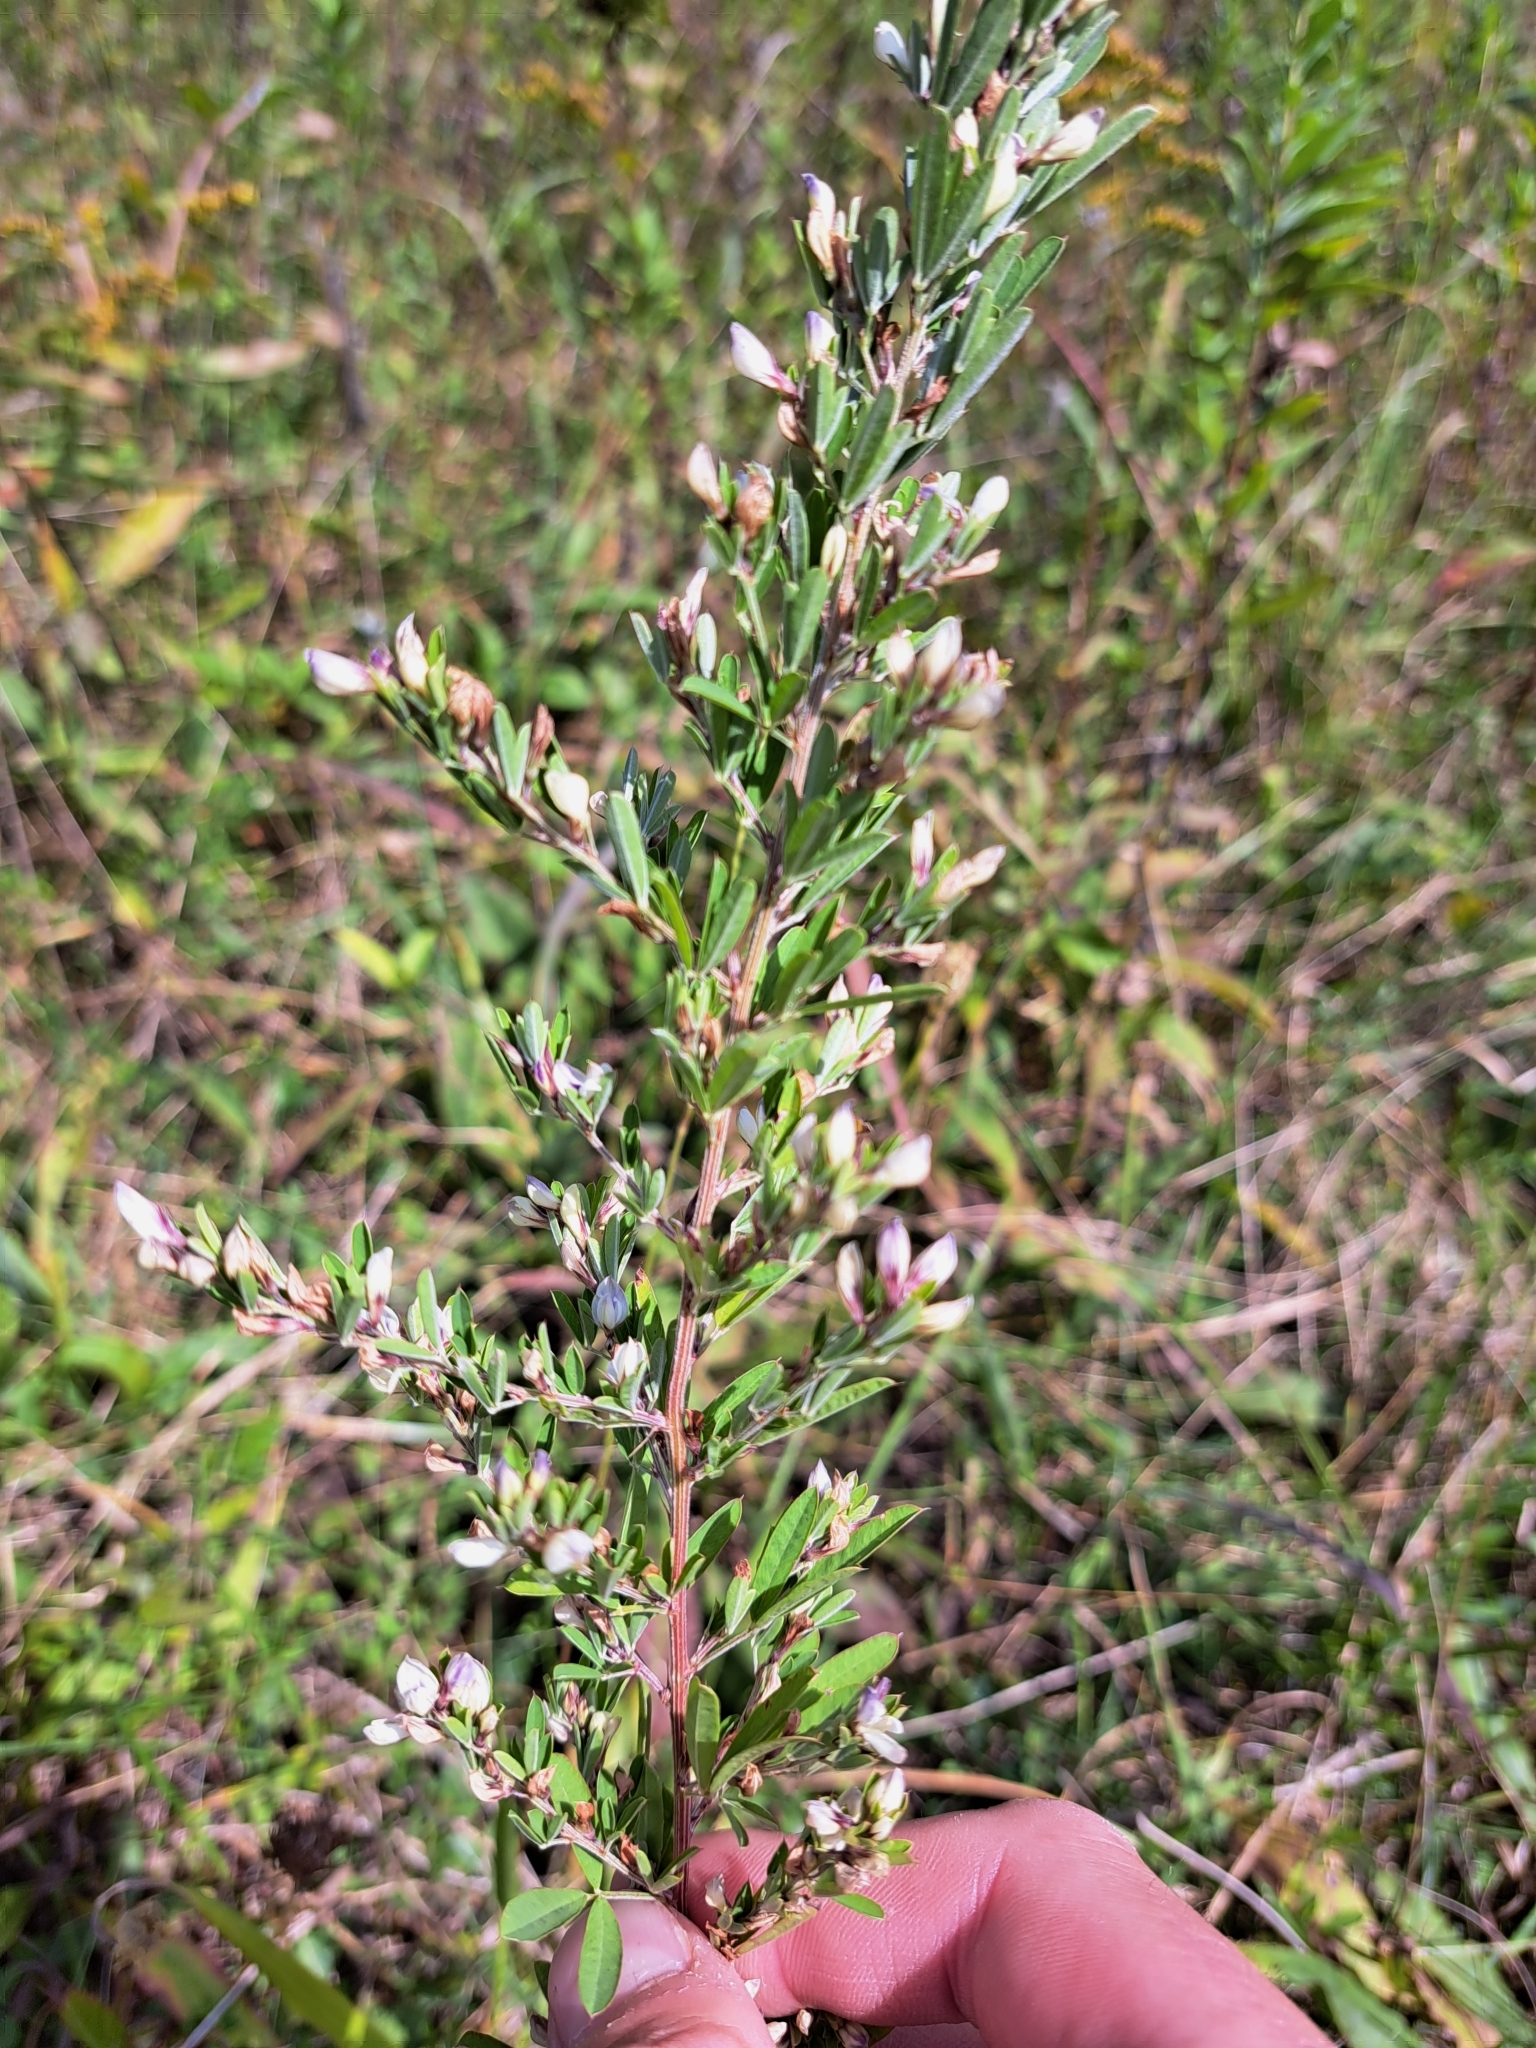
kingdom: Plantae
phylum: Tracheophyta
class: Magnoliopsida
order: Fabales
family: Fabaceae
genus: Lespedeza
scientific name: Lespedeza cuneata
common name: Chinese bush-clover
